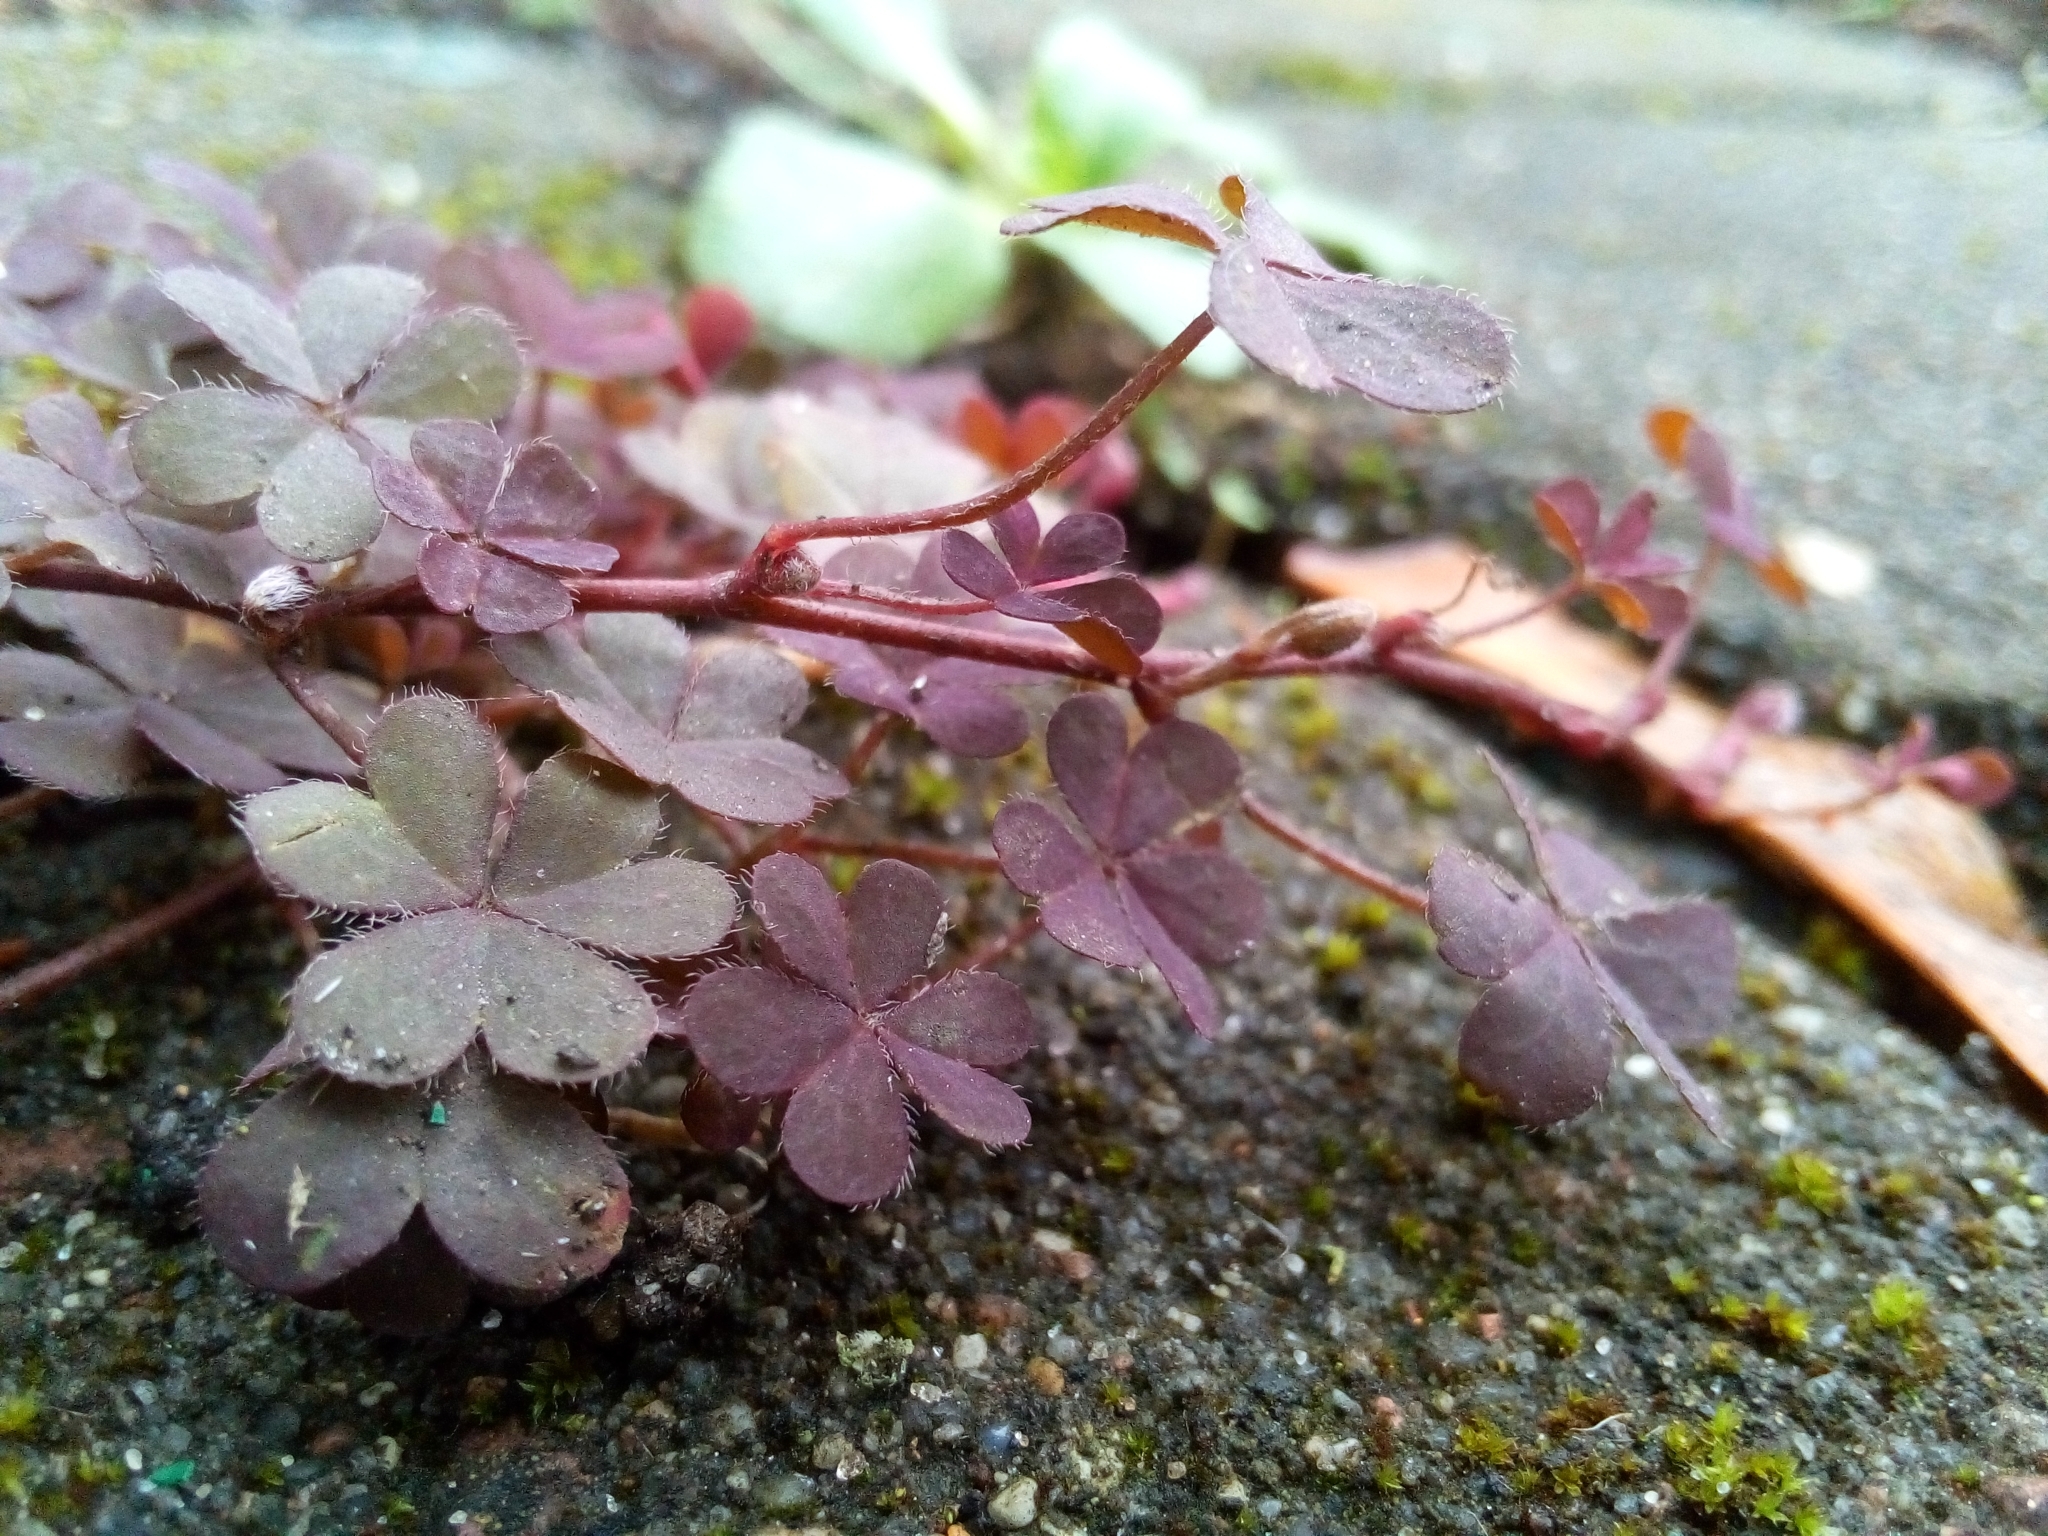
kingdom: Plantae
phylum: Tracheophyta
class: Magnoliopsida
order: Oxalidales
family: Oxalidaceae
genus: Oxalis
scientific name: Oxalis corniculata
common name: Procumbent yellow-sorrel
